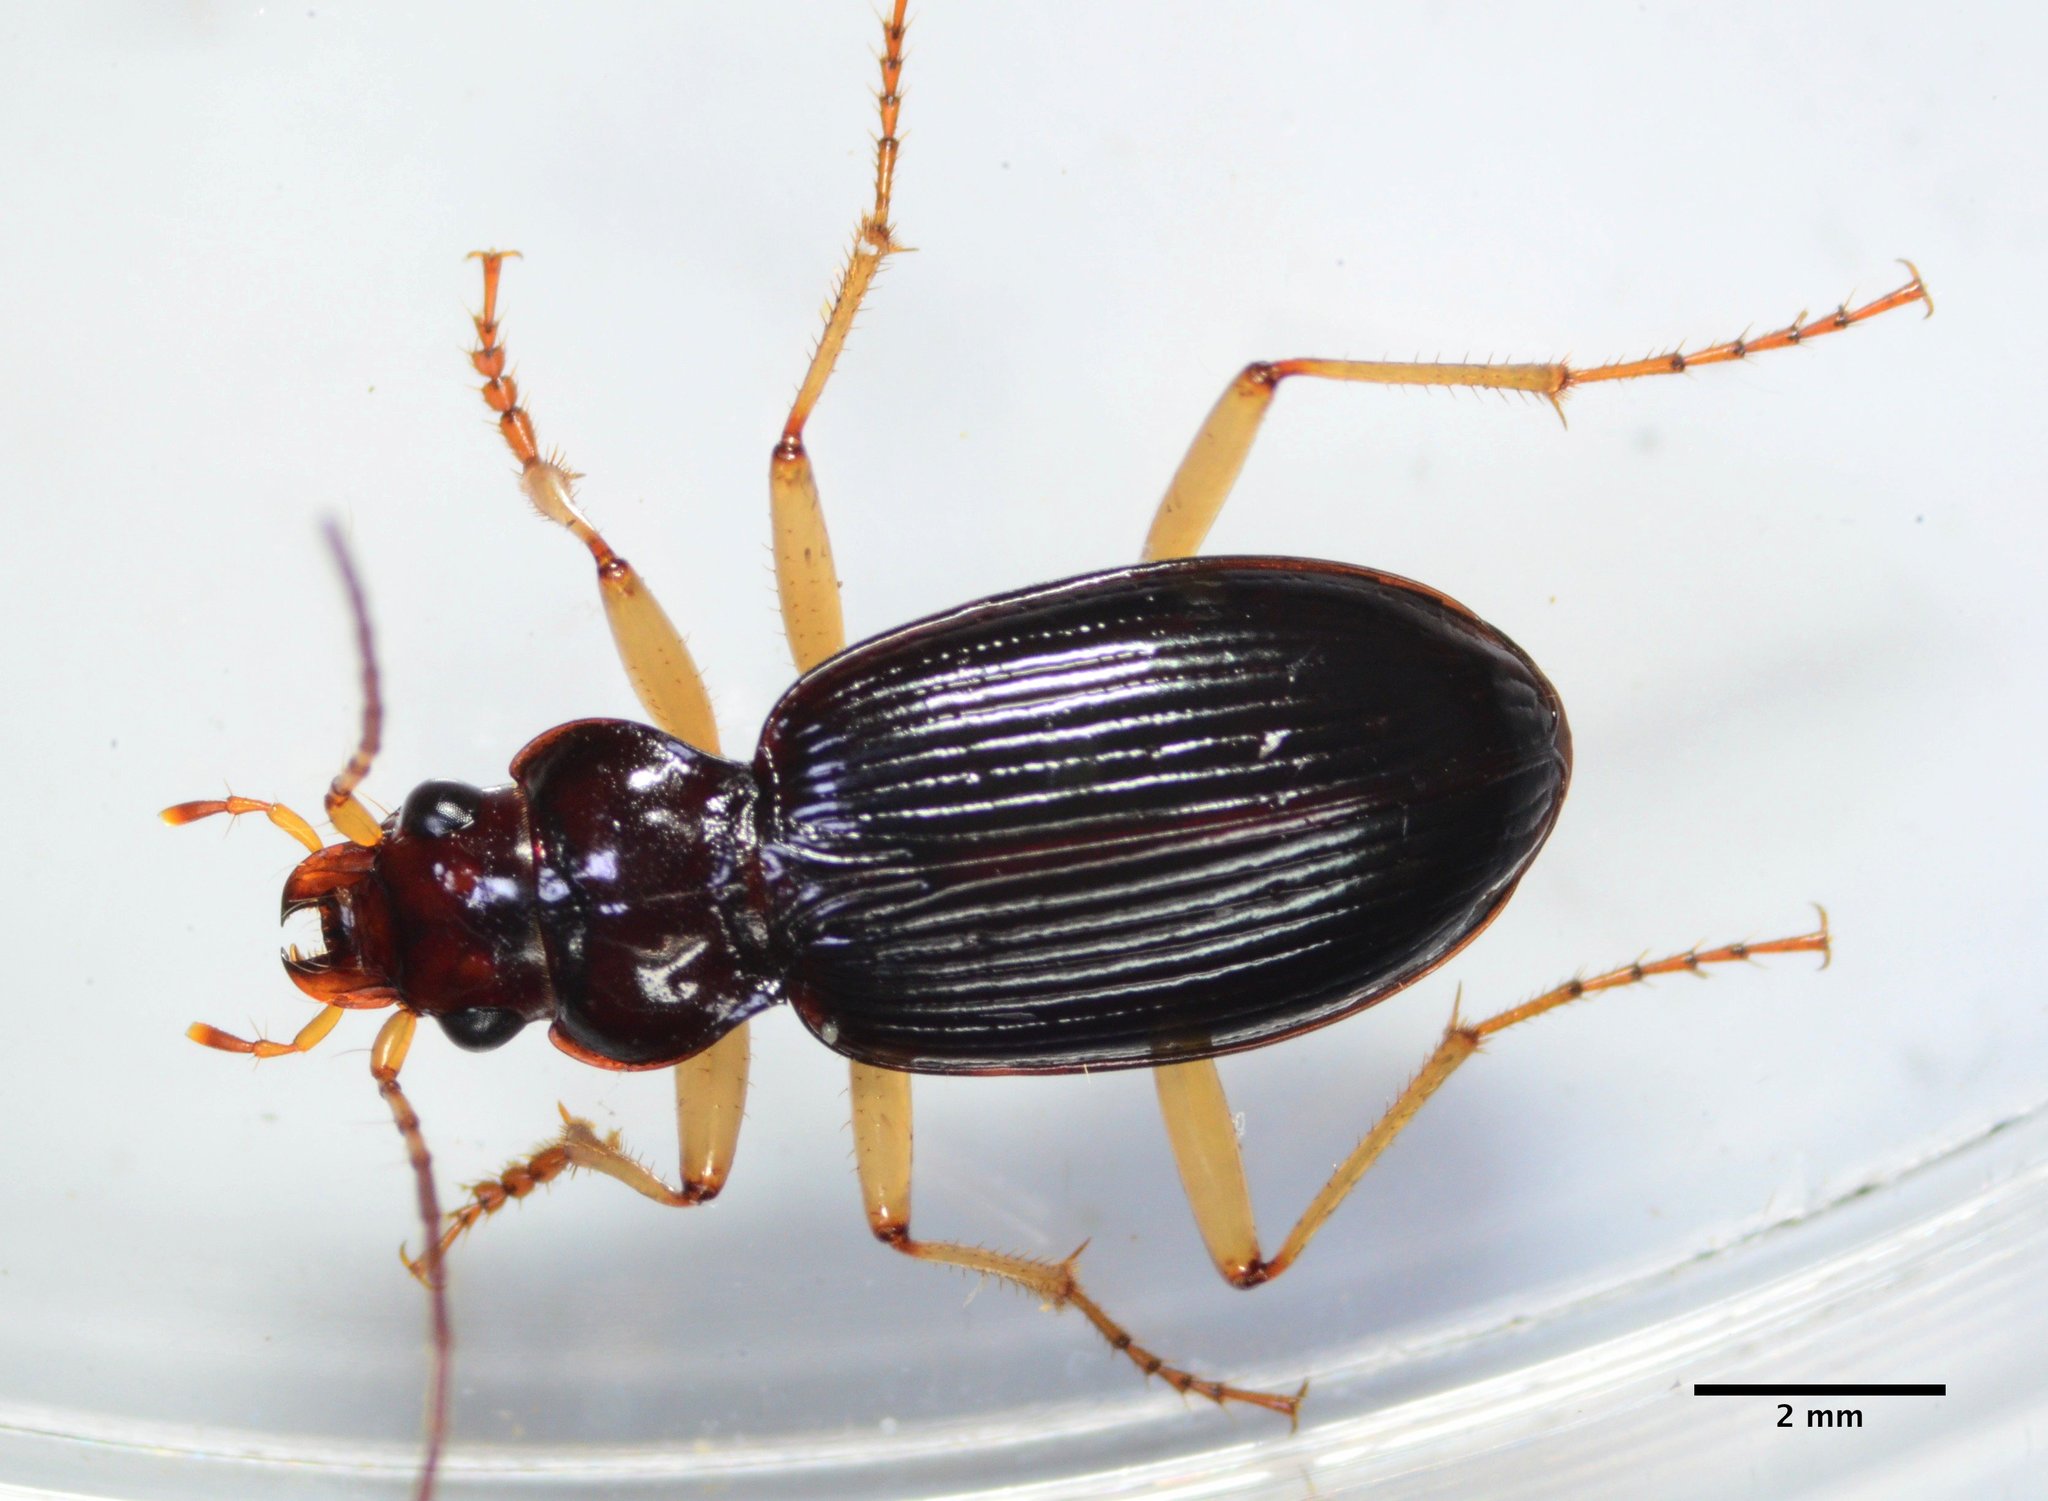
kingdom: Animalia
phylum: Arthropoda
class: Insecta
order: Coleoptera
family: Carabidae
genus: Nebria
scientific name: Nebria eschscholtzii
